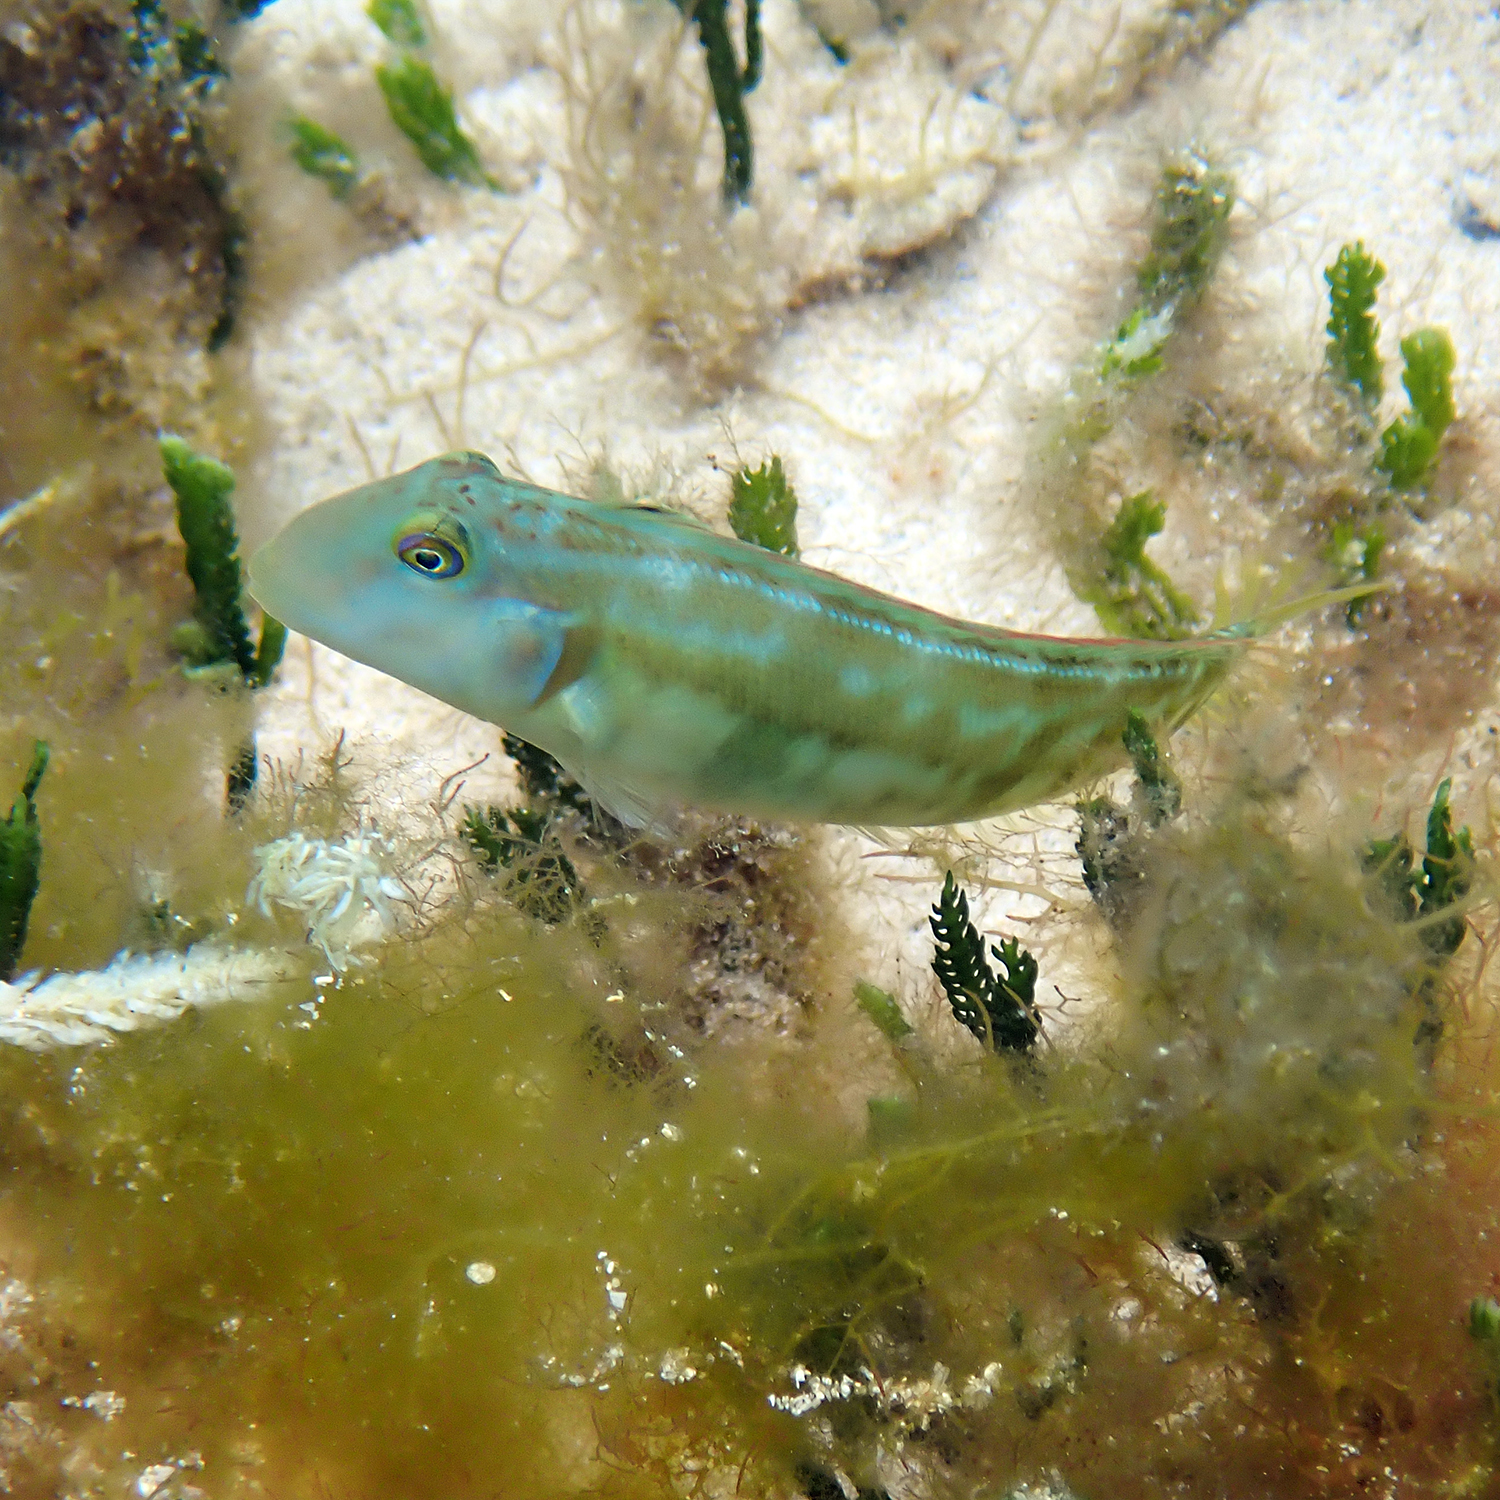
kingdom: Animalia
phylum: Chordata
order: Perciformes
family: Labridae
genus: Cymolutes
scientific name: Cymolutes praetextatus
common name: Knife razorfish
